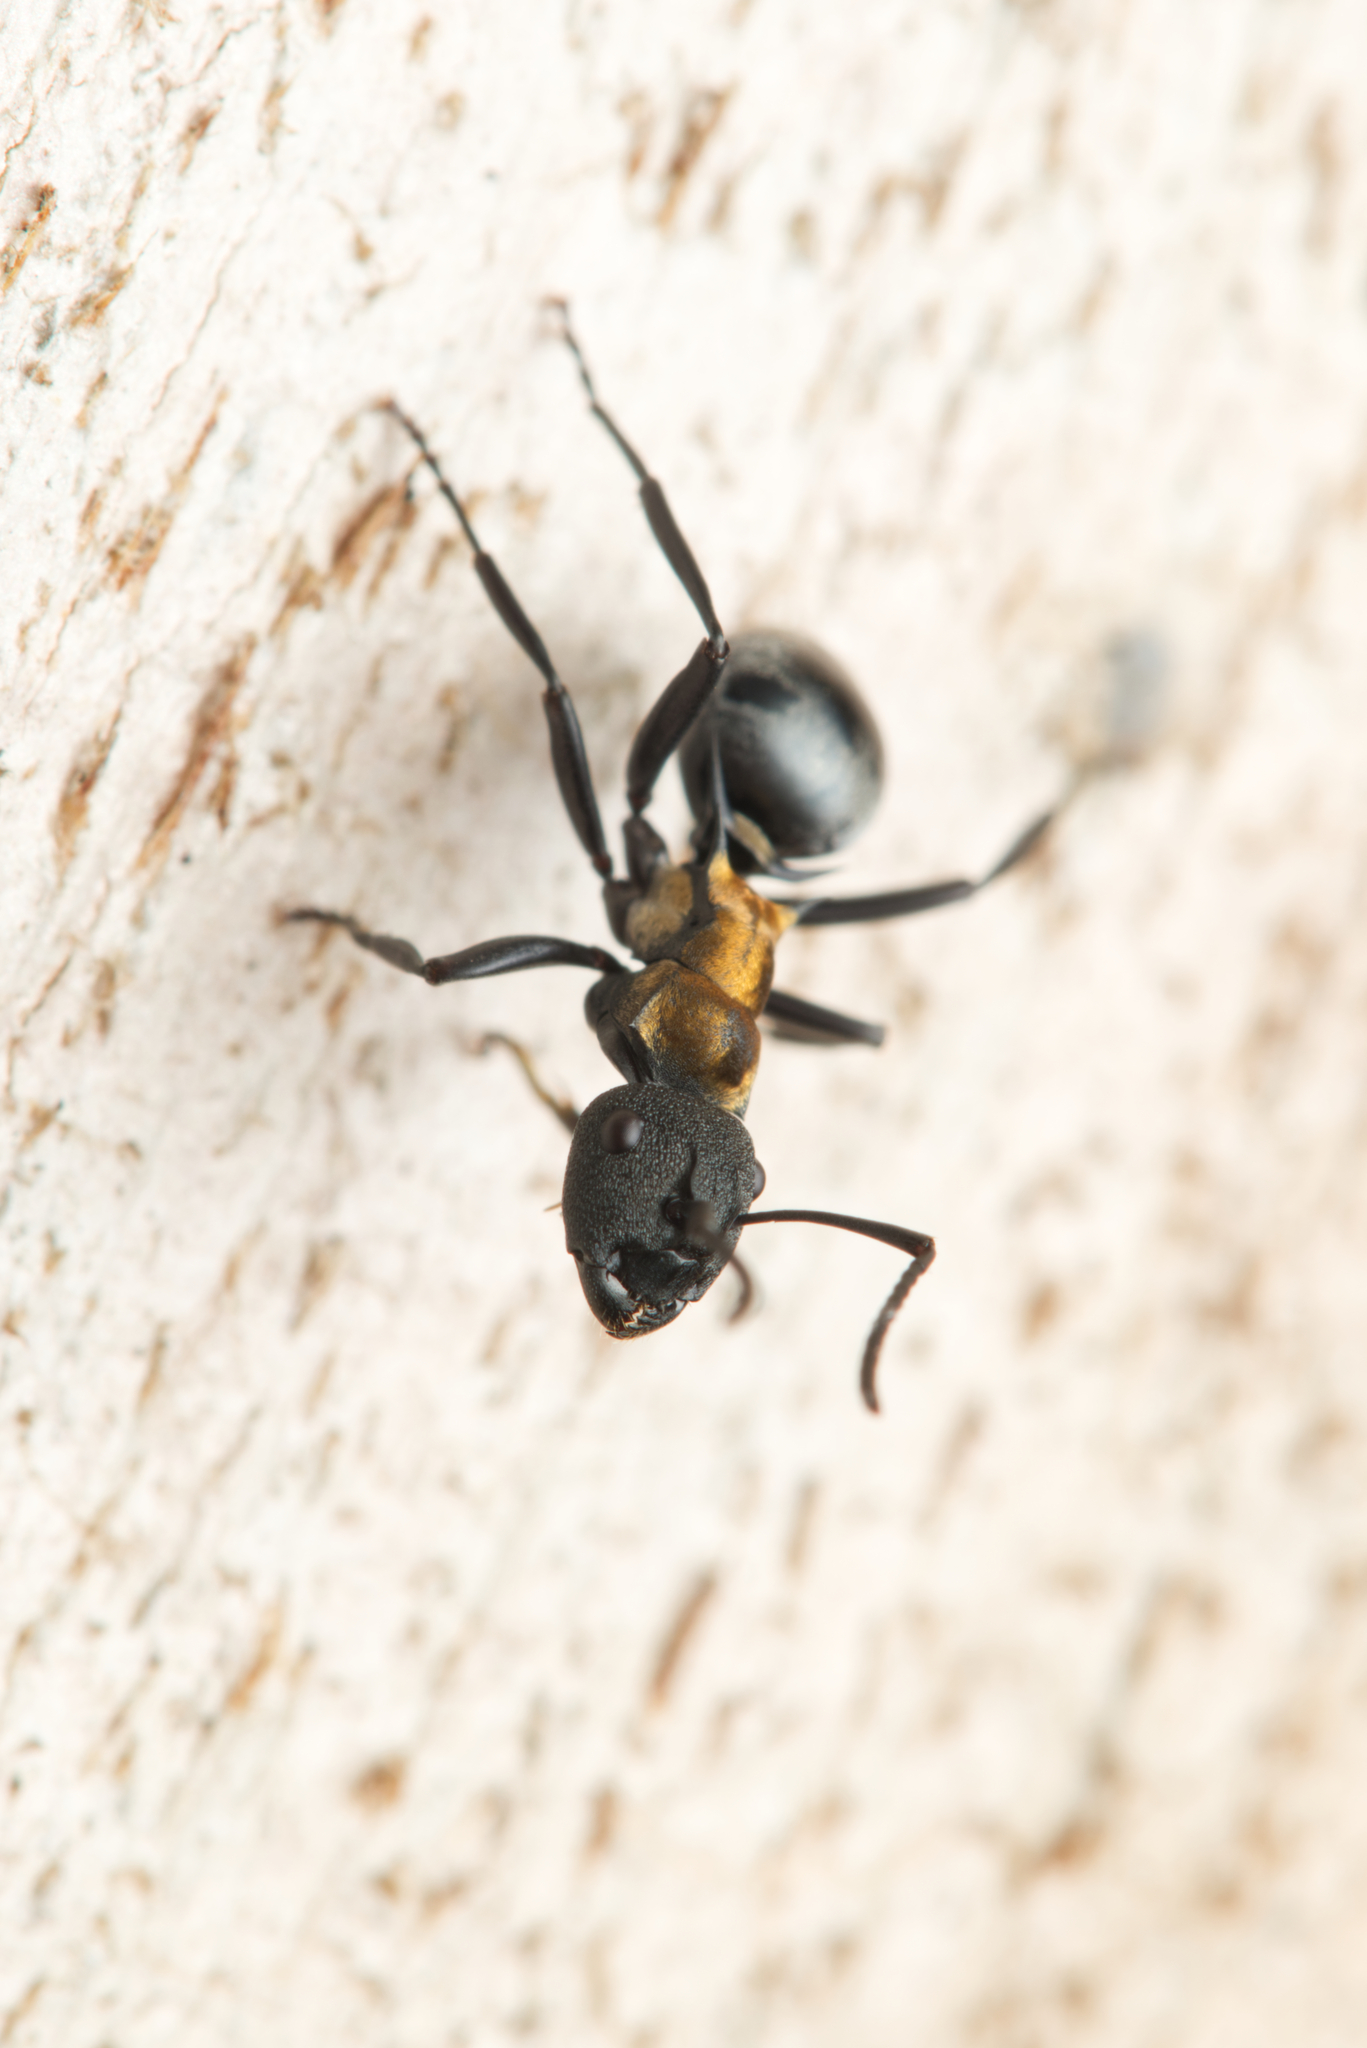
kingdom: Animalia
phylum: Arthropoda
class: Insecta
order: Hymenoptera
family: Formicidae
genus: Polyrhachis
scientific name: Polyrhachis ornata
